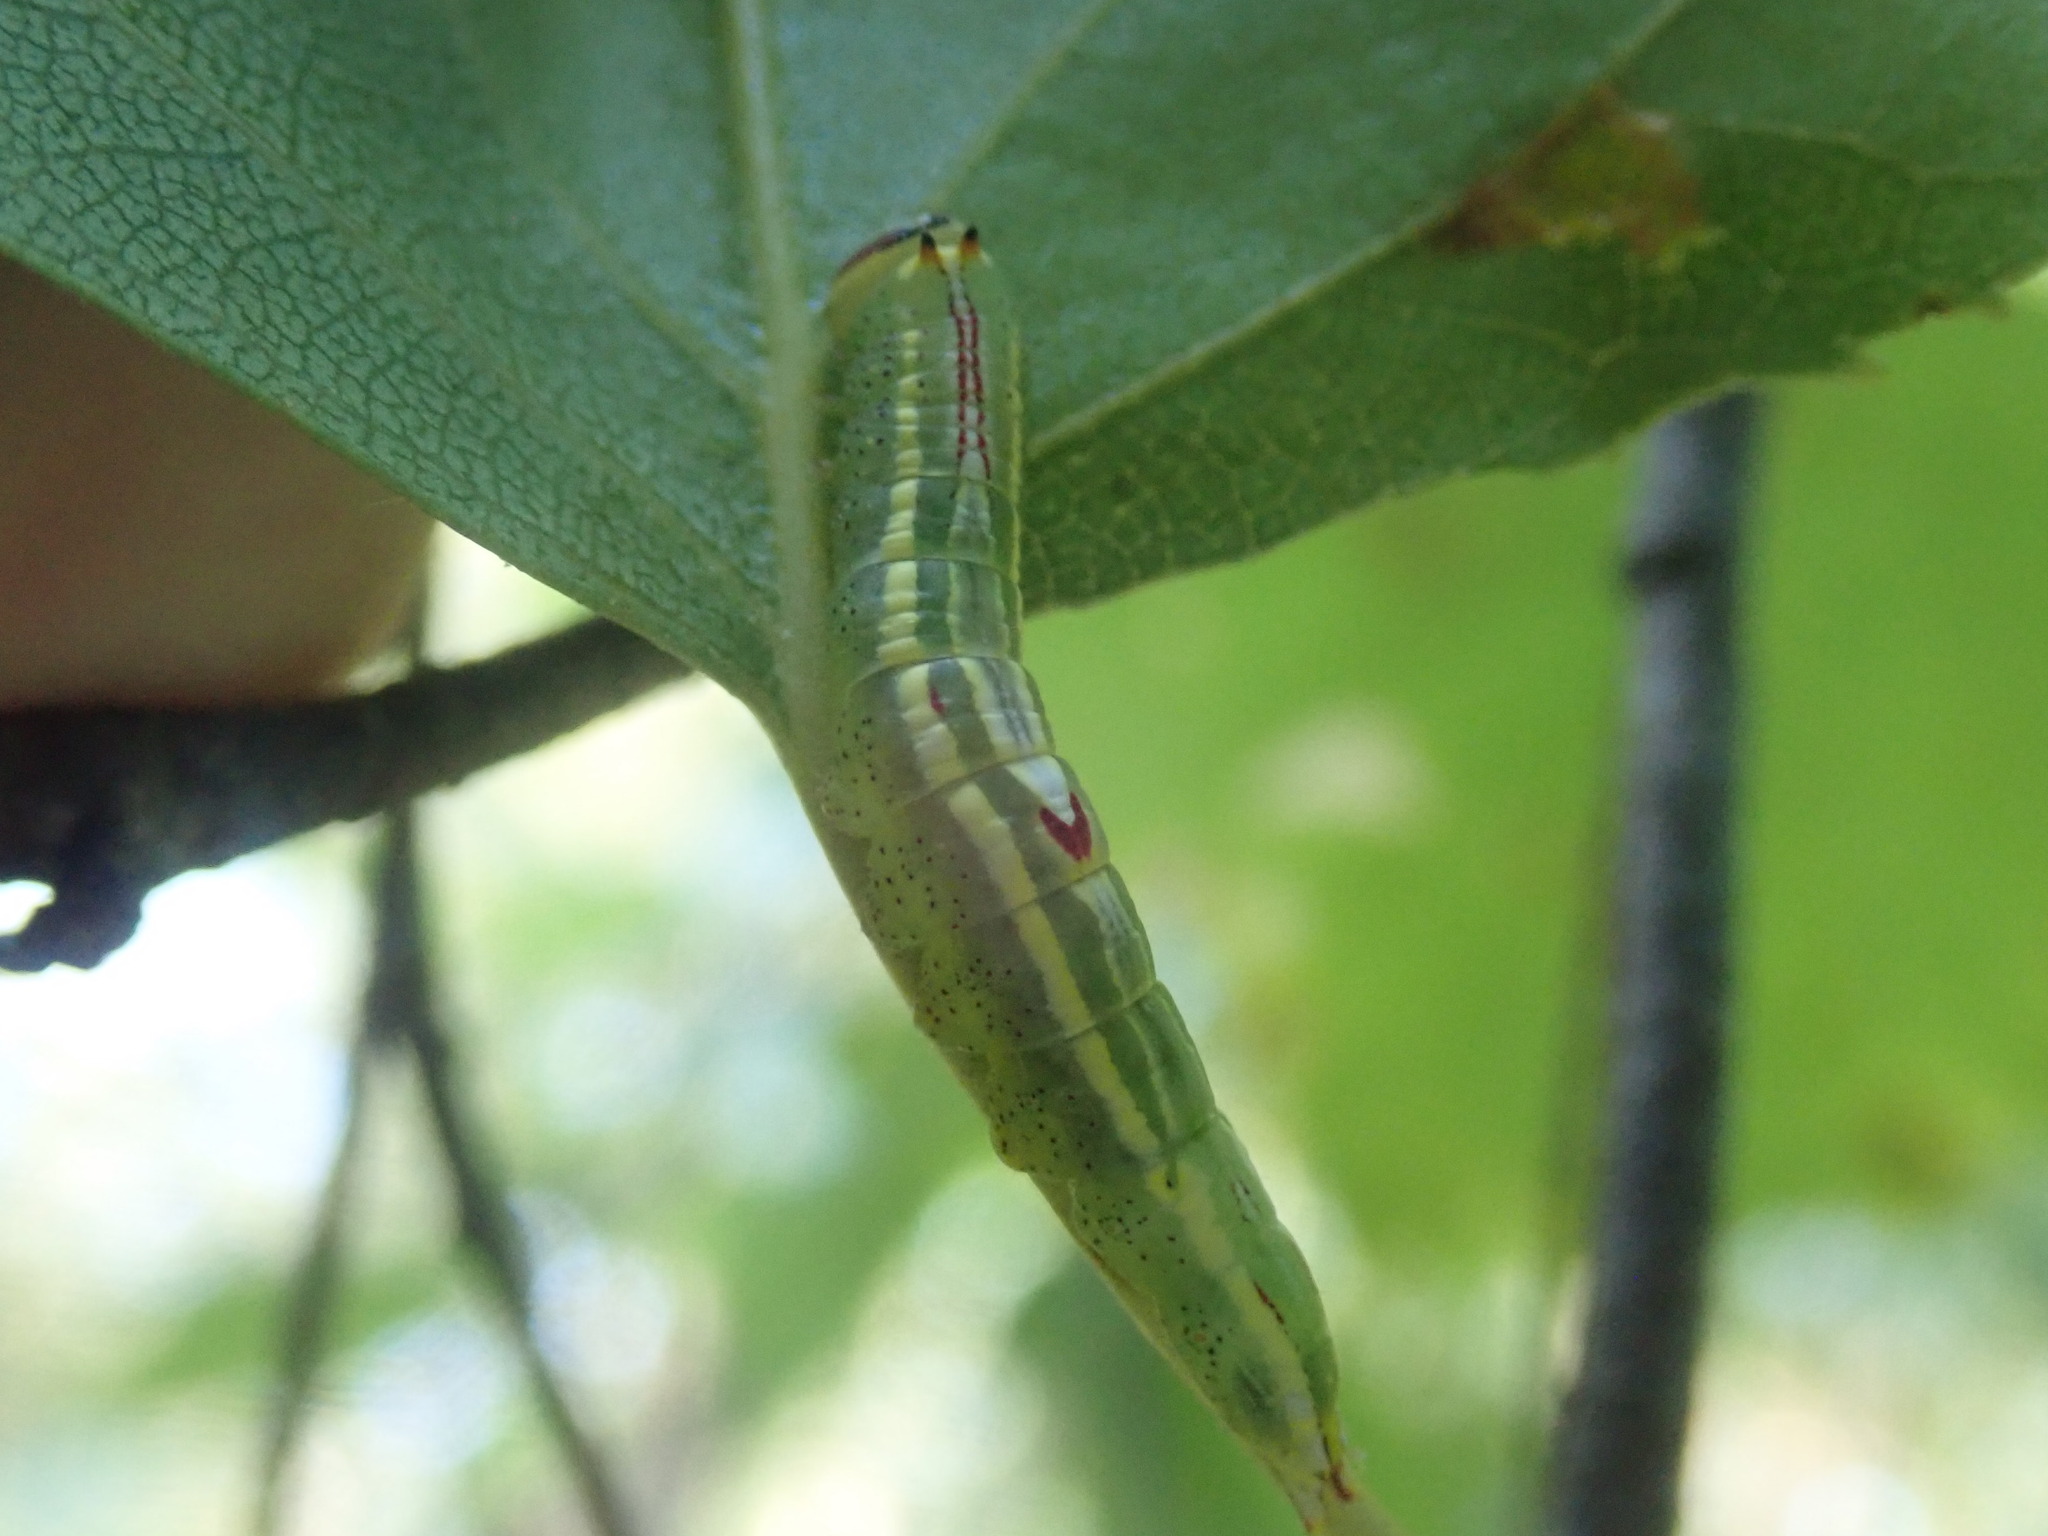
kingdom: Animalia
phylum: Arthropoda
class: Insecta
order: Lepidoptera
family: Notodontidae
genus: Disphragis
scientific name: Disphragis Cecrita guttivitta
